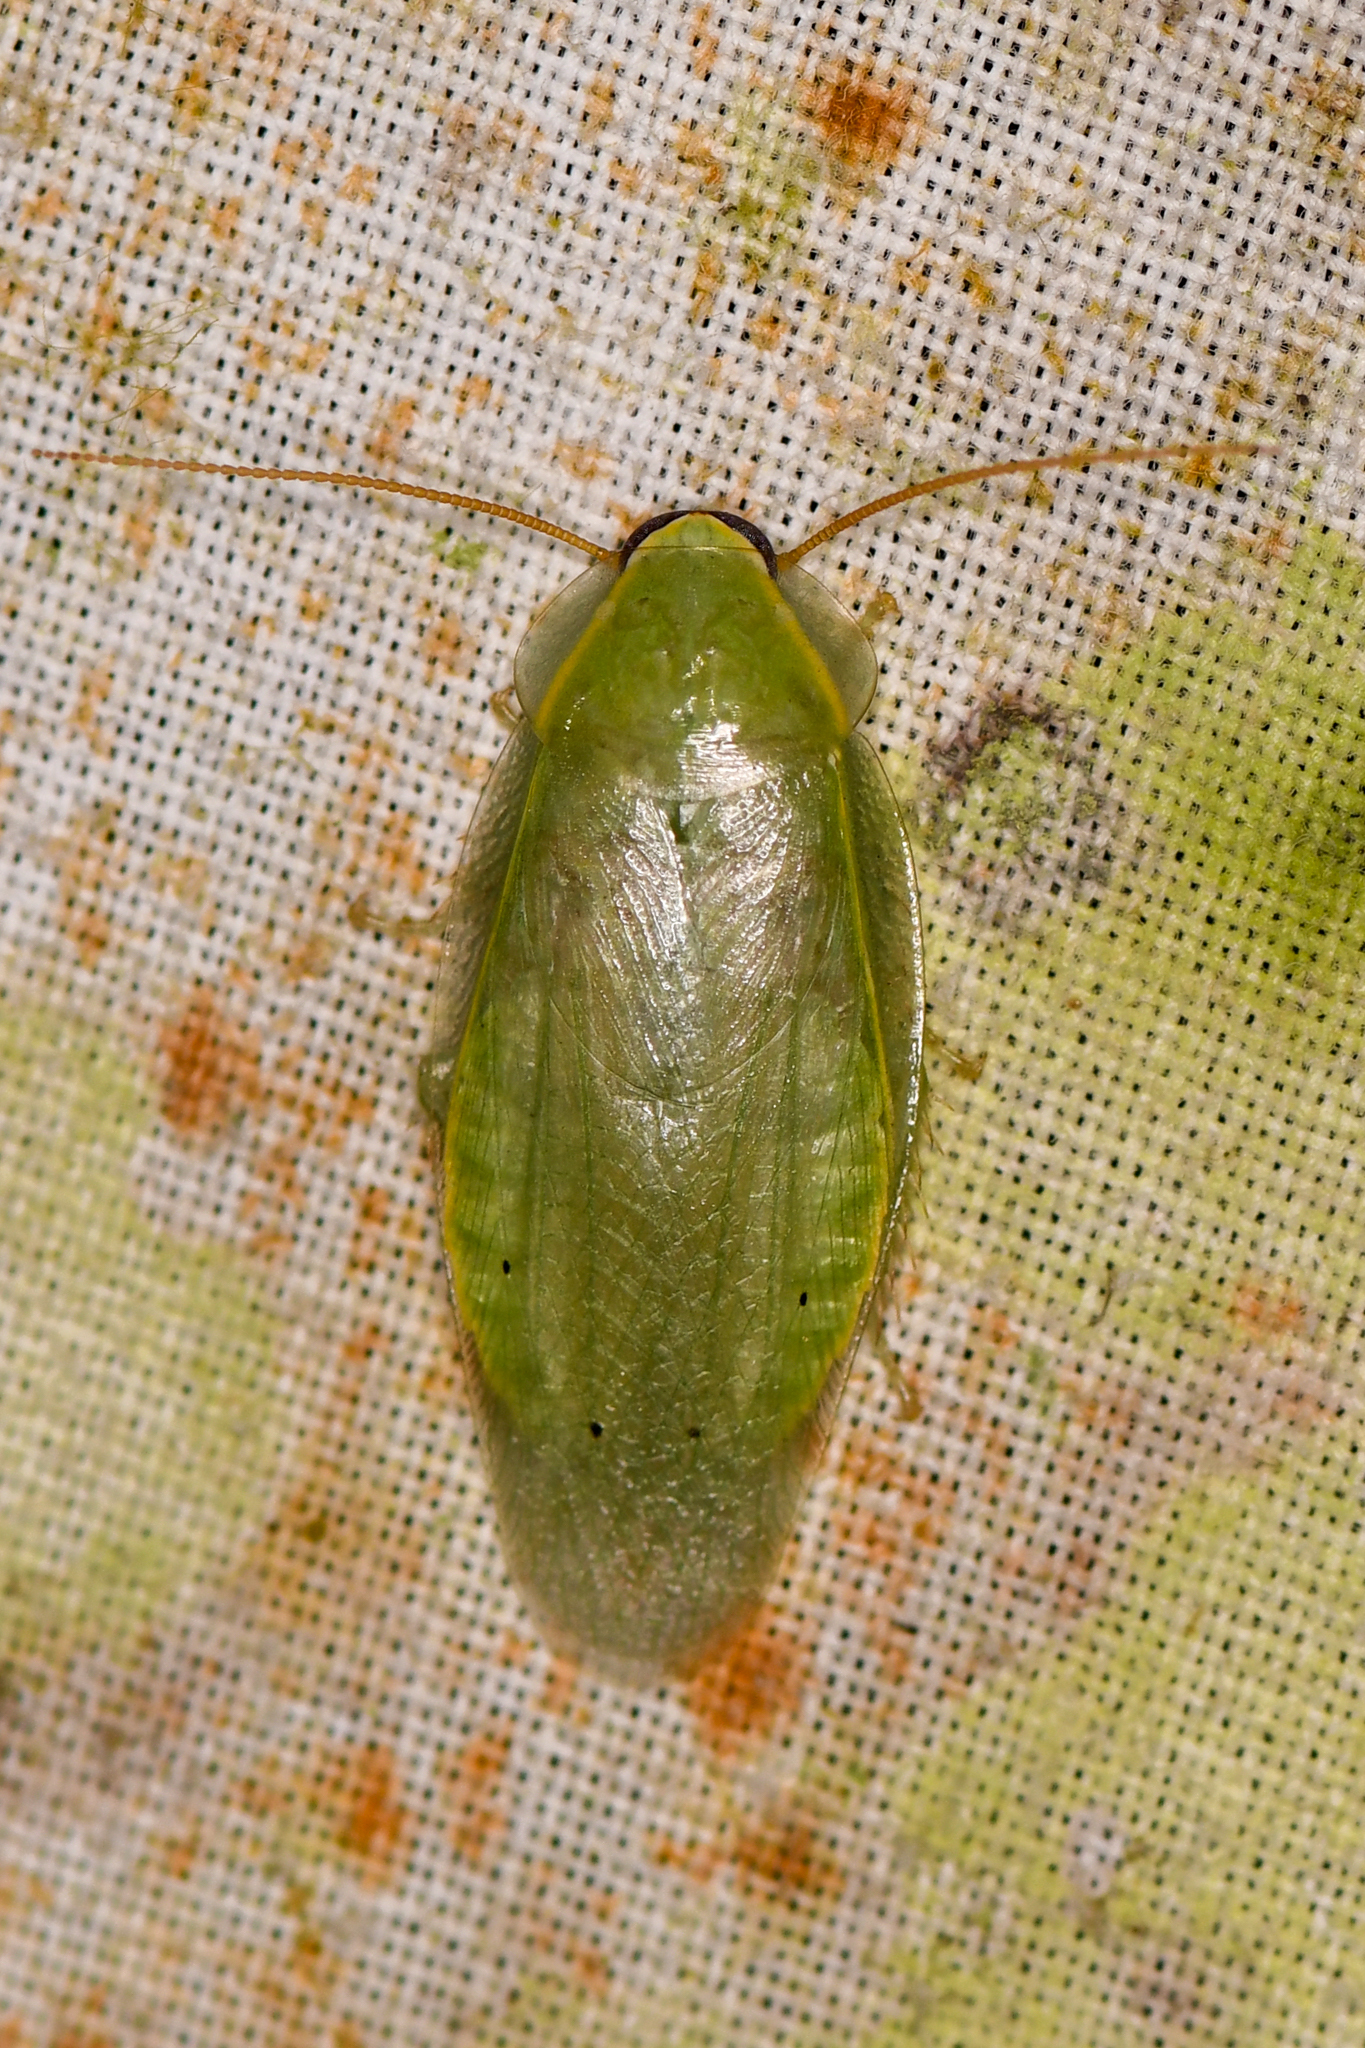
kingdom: Animalia
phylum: Arthropoda
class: Insecta
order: Blattodea
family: Blaberidae
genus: Panchlora
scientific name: Panchlora nivea
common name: Cuban cockroach
